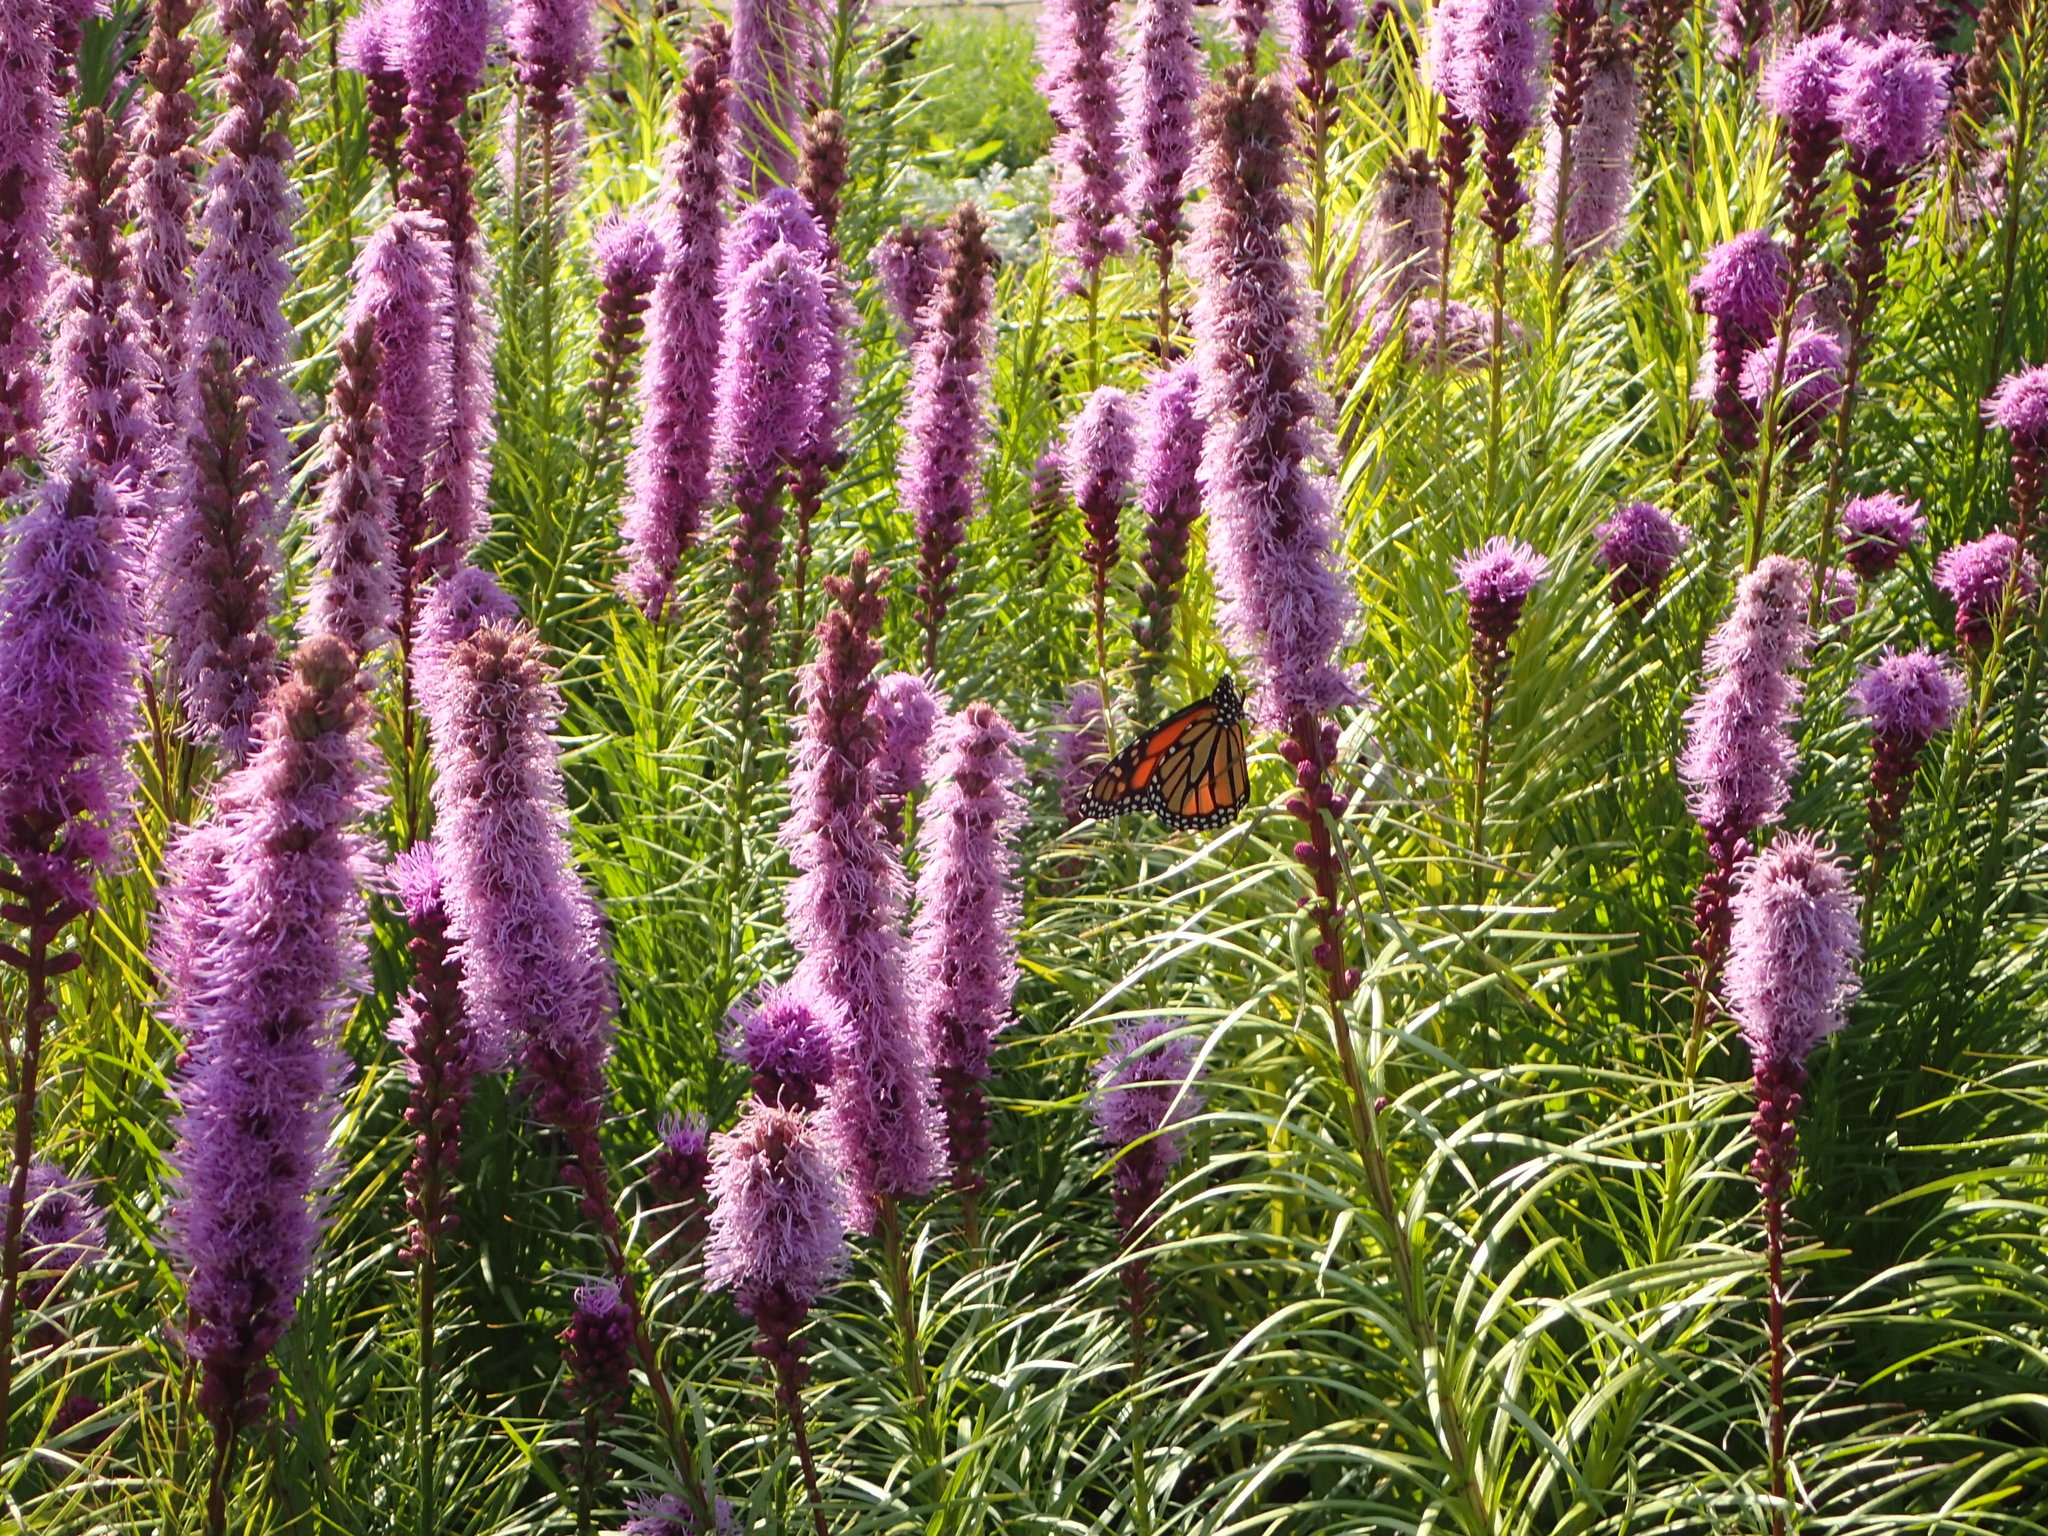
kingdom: Animalia
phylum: Arthropoda
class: Insecta
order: Lepidoptera
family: Nymphalidae
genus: Danaus
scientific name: Danaus plexippus
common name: Monarch
